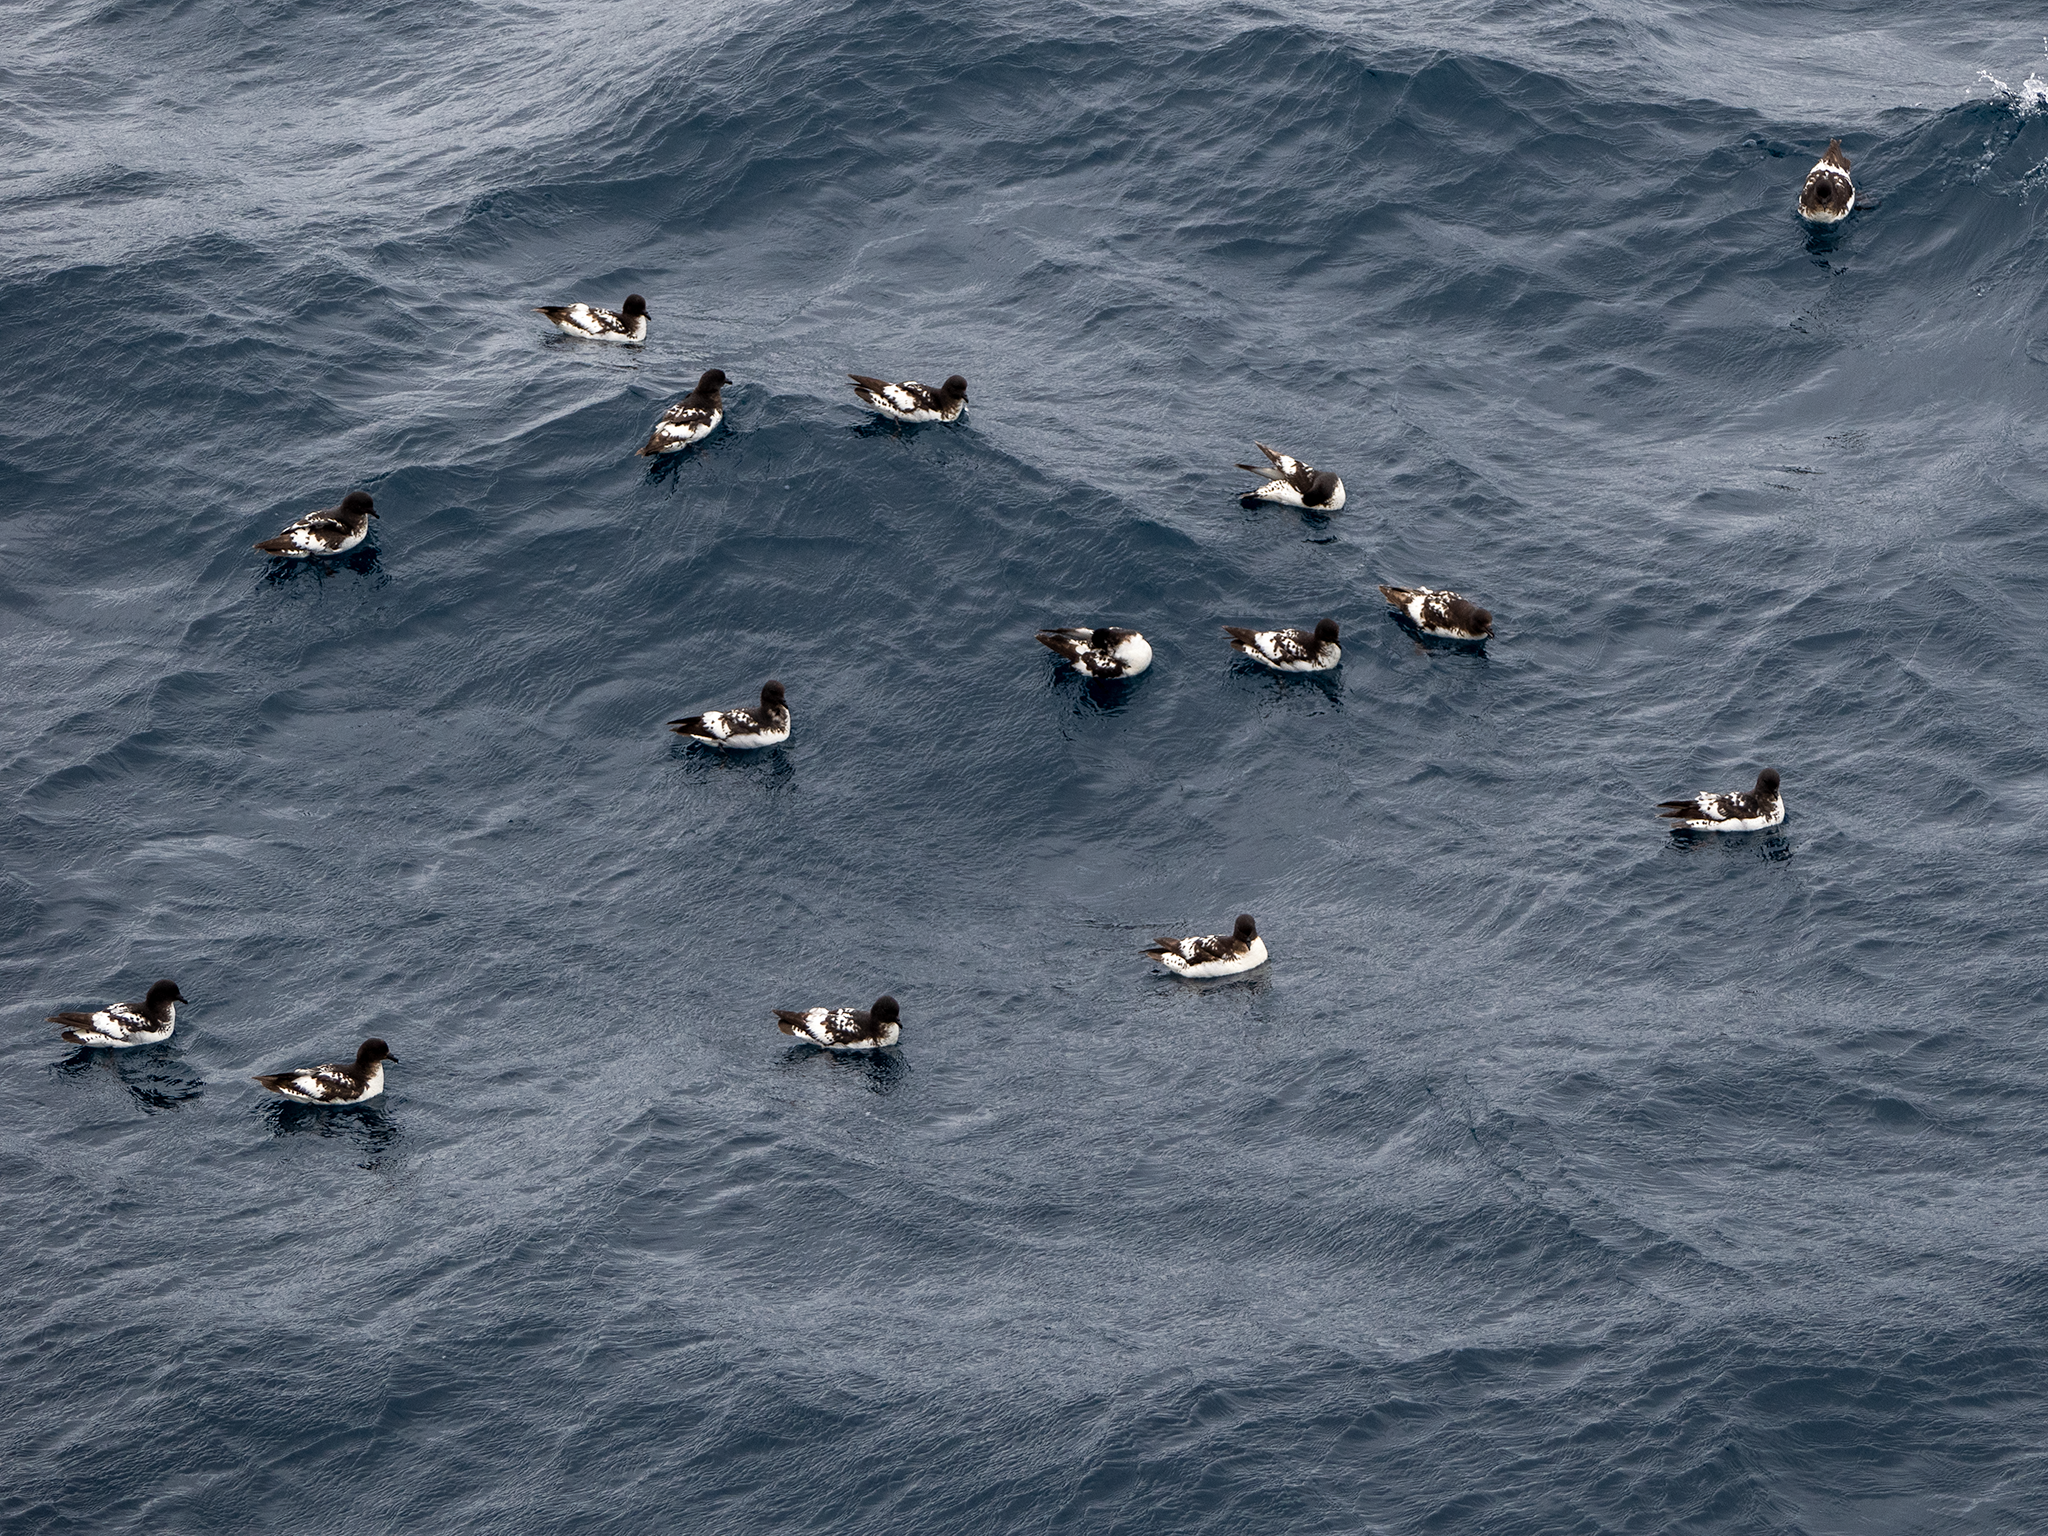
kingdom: Animalia
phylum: Chordata
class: Aves
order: Procellariiformes
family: Procellariidae
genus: Daption
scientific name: Daption capense
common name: Cape petrel
